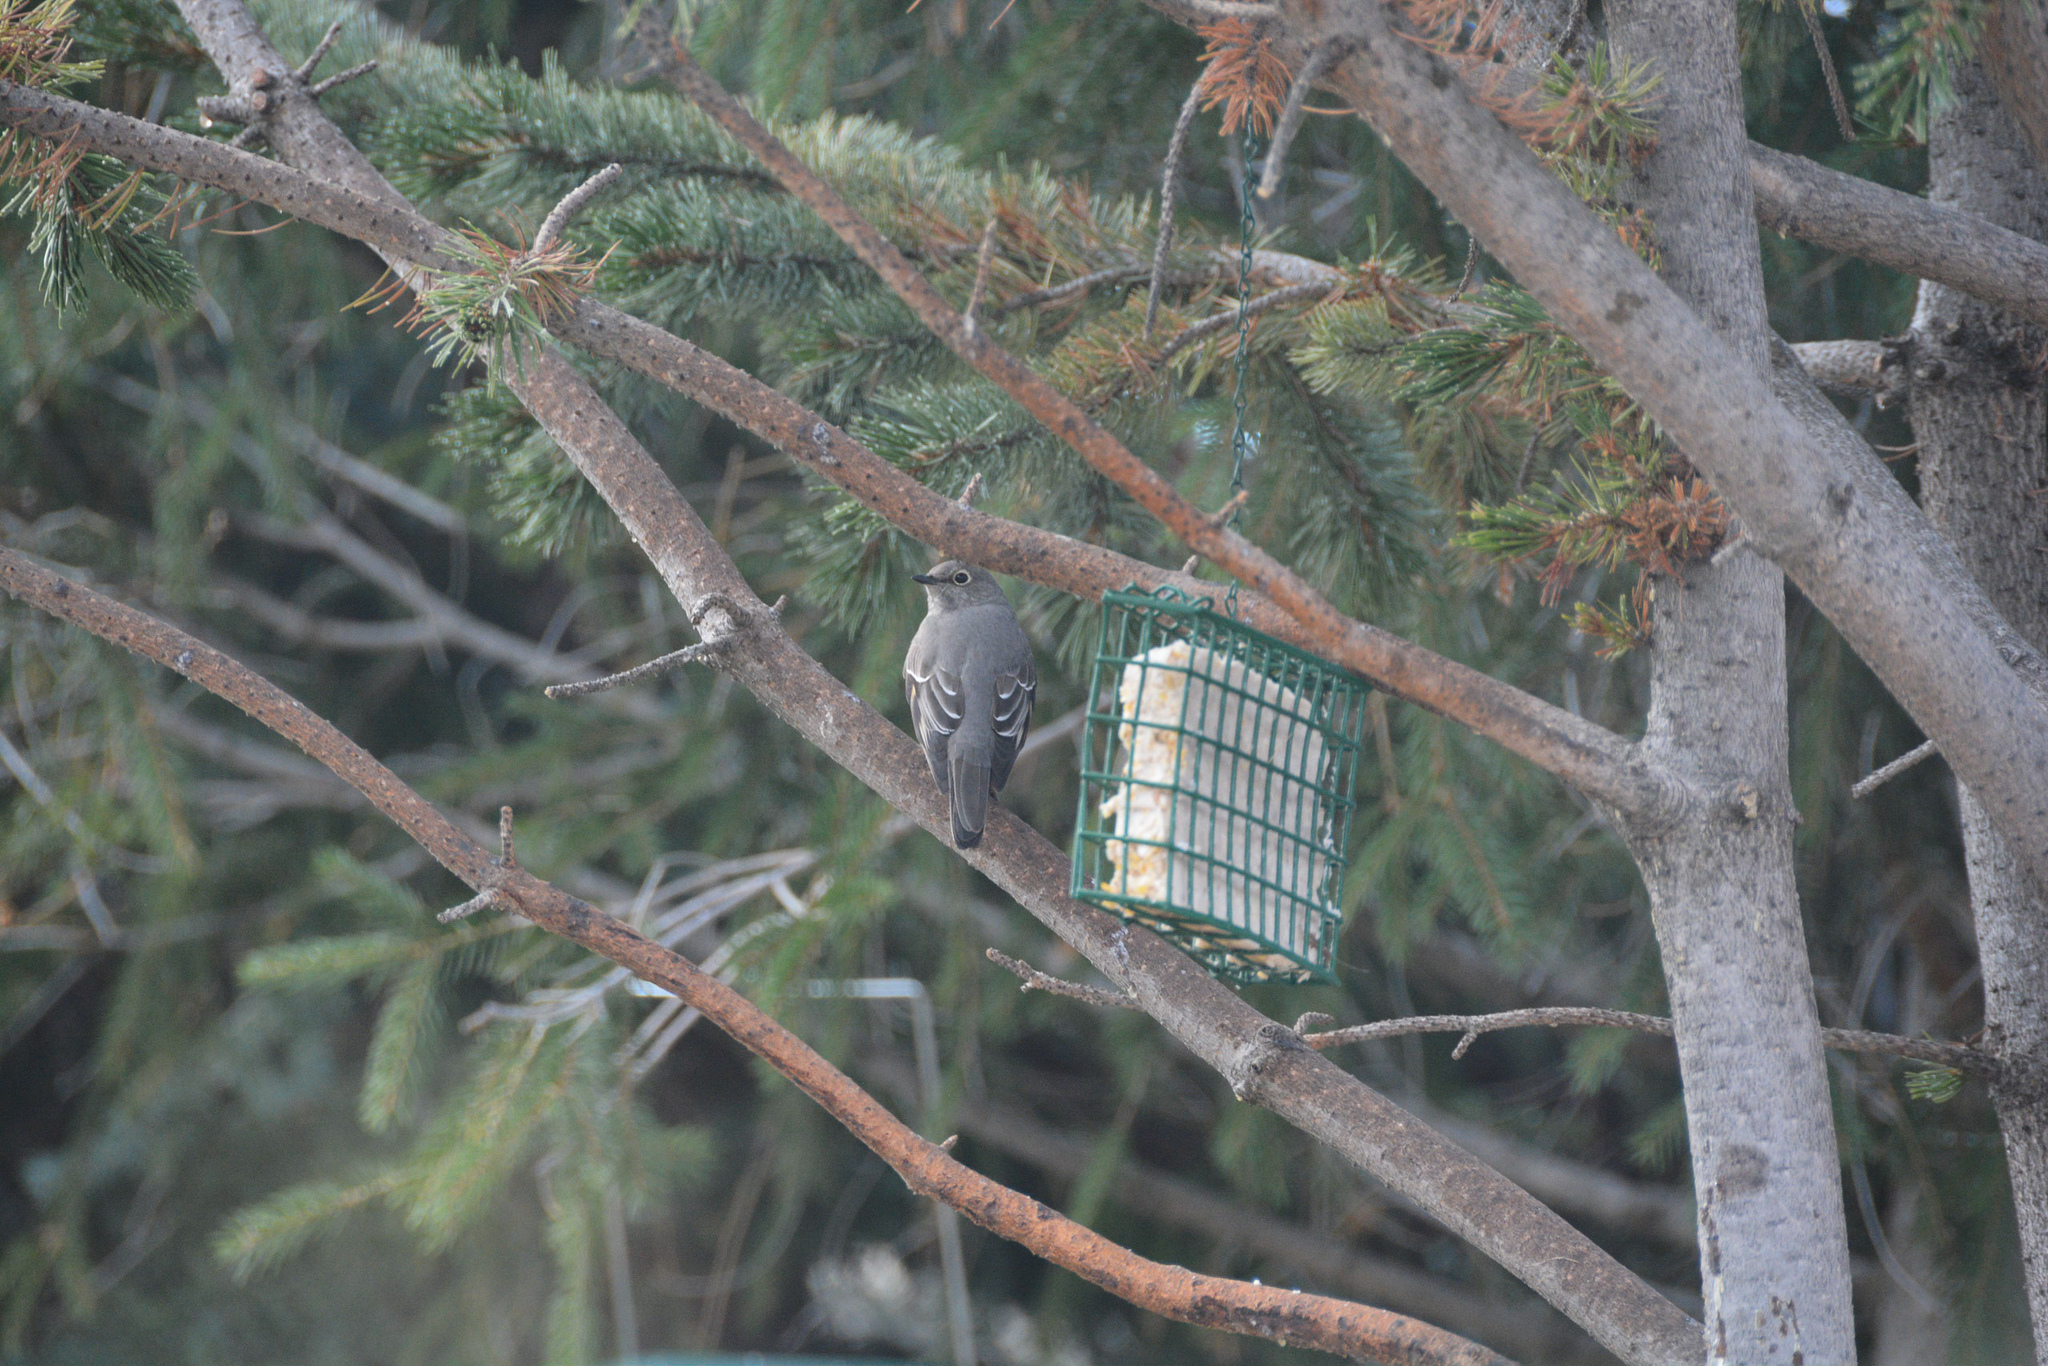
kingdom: Animalia
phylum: Chordata
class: Aves
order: Passeriformes
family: Turdidae
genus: Myadestes
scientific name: Myadestes townsendi
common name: Townsend's solitaire
